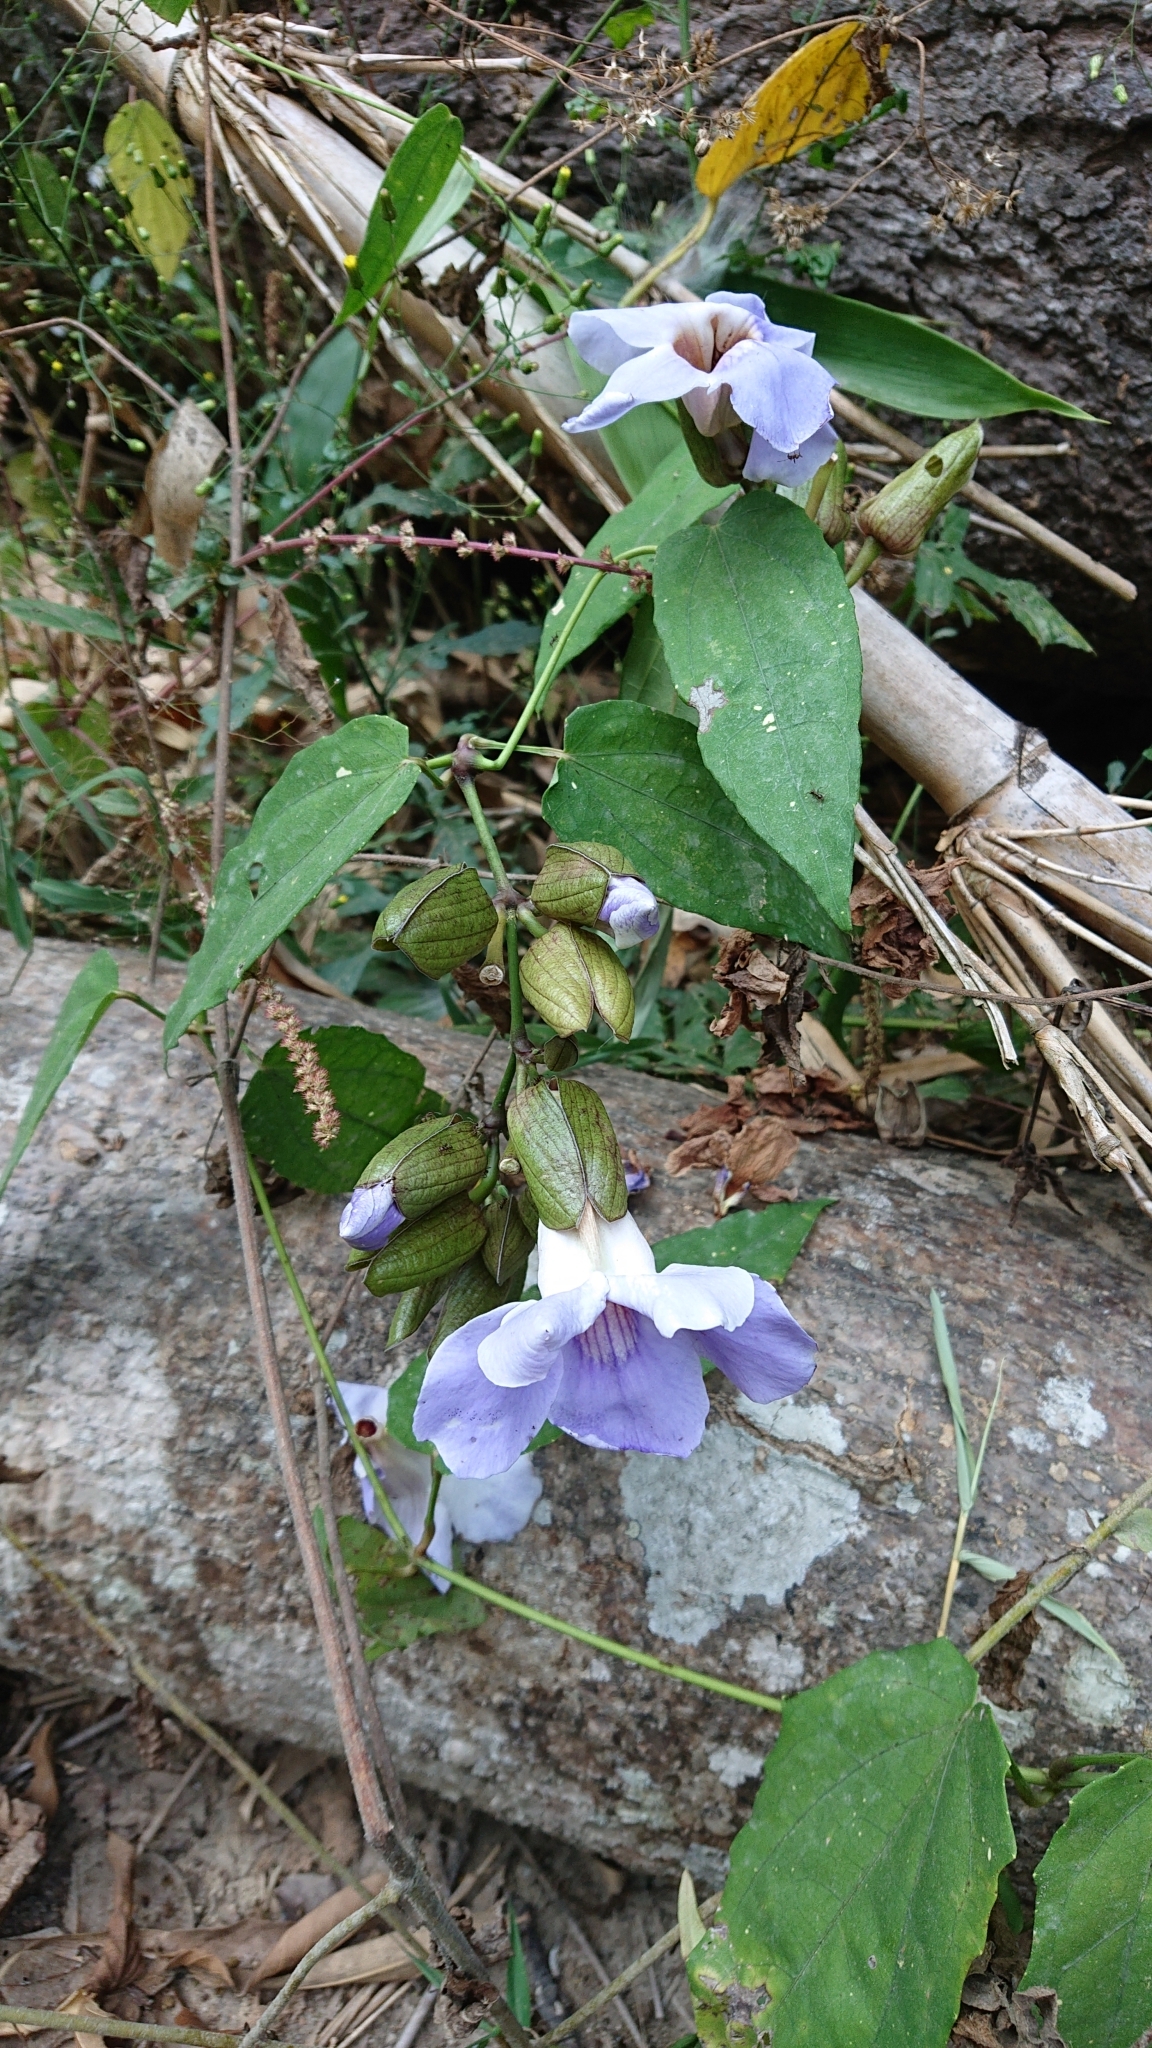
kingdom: Plantae
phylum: Tracheophyta
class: Magnoliopsida
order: Lamiales
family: Acanthaceae
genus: Thunbergia
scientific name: Thunbergia laurifolia
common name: Laurel-leaved thunbergia
